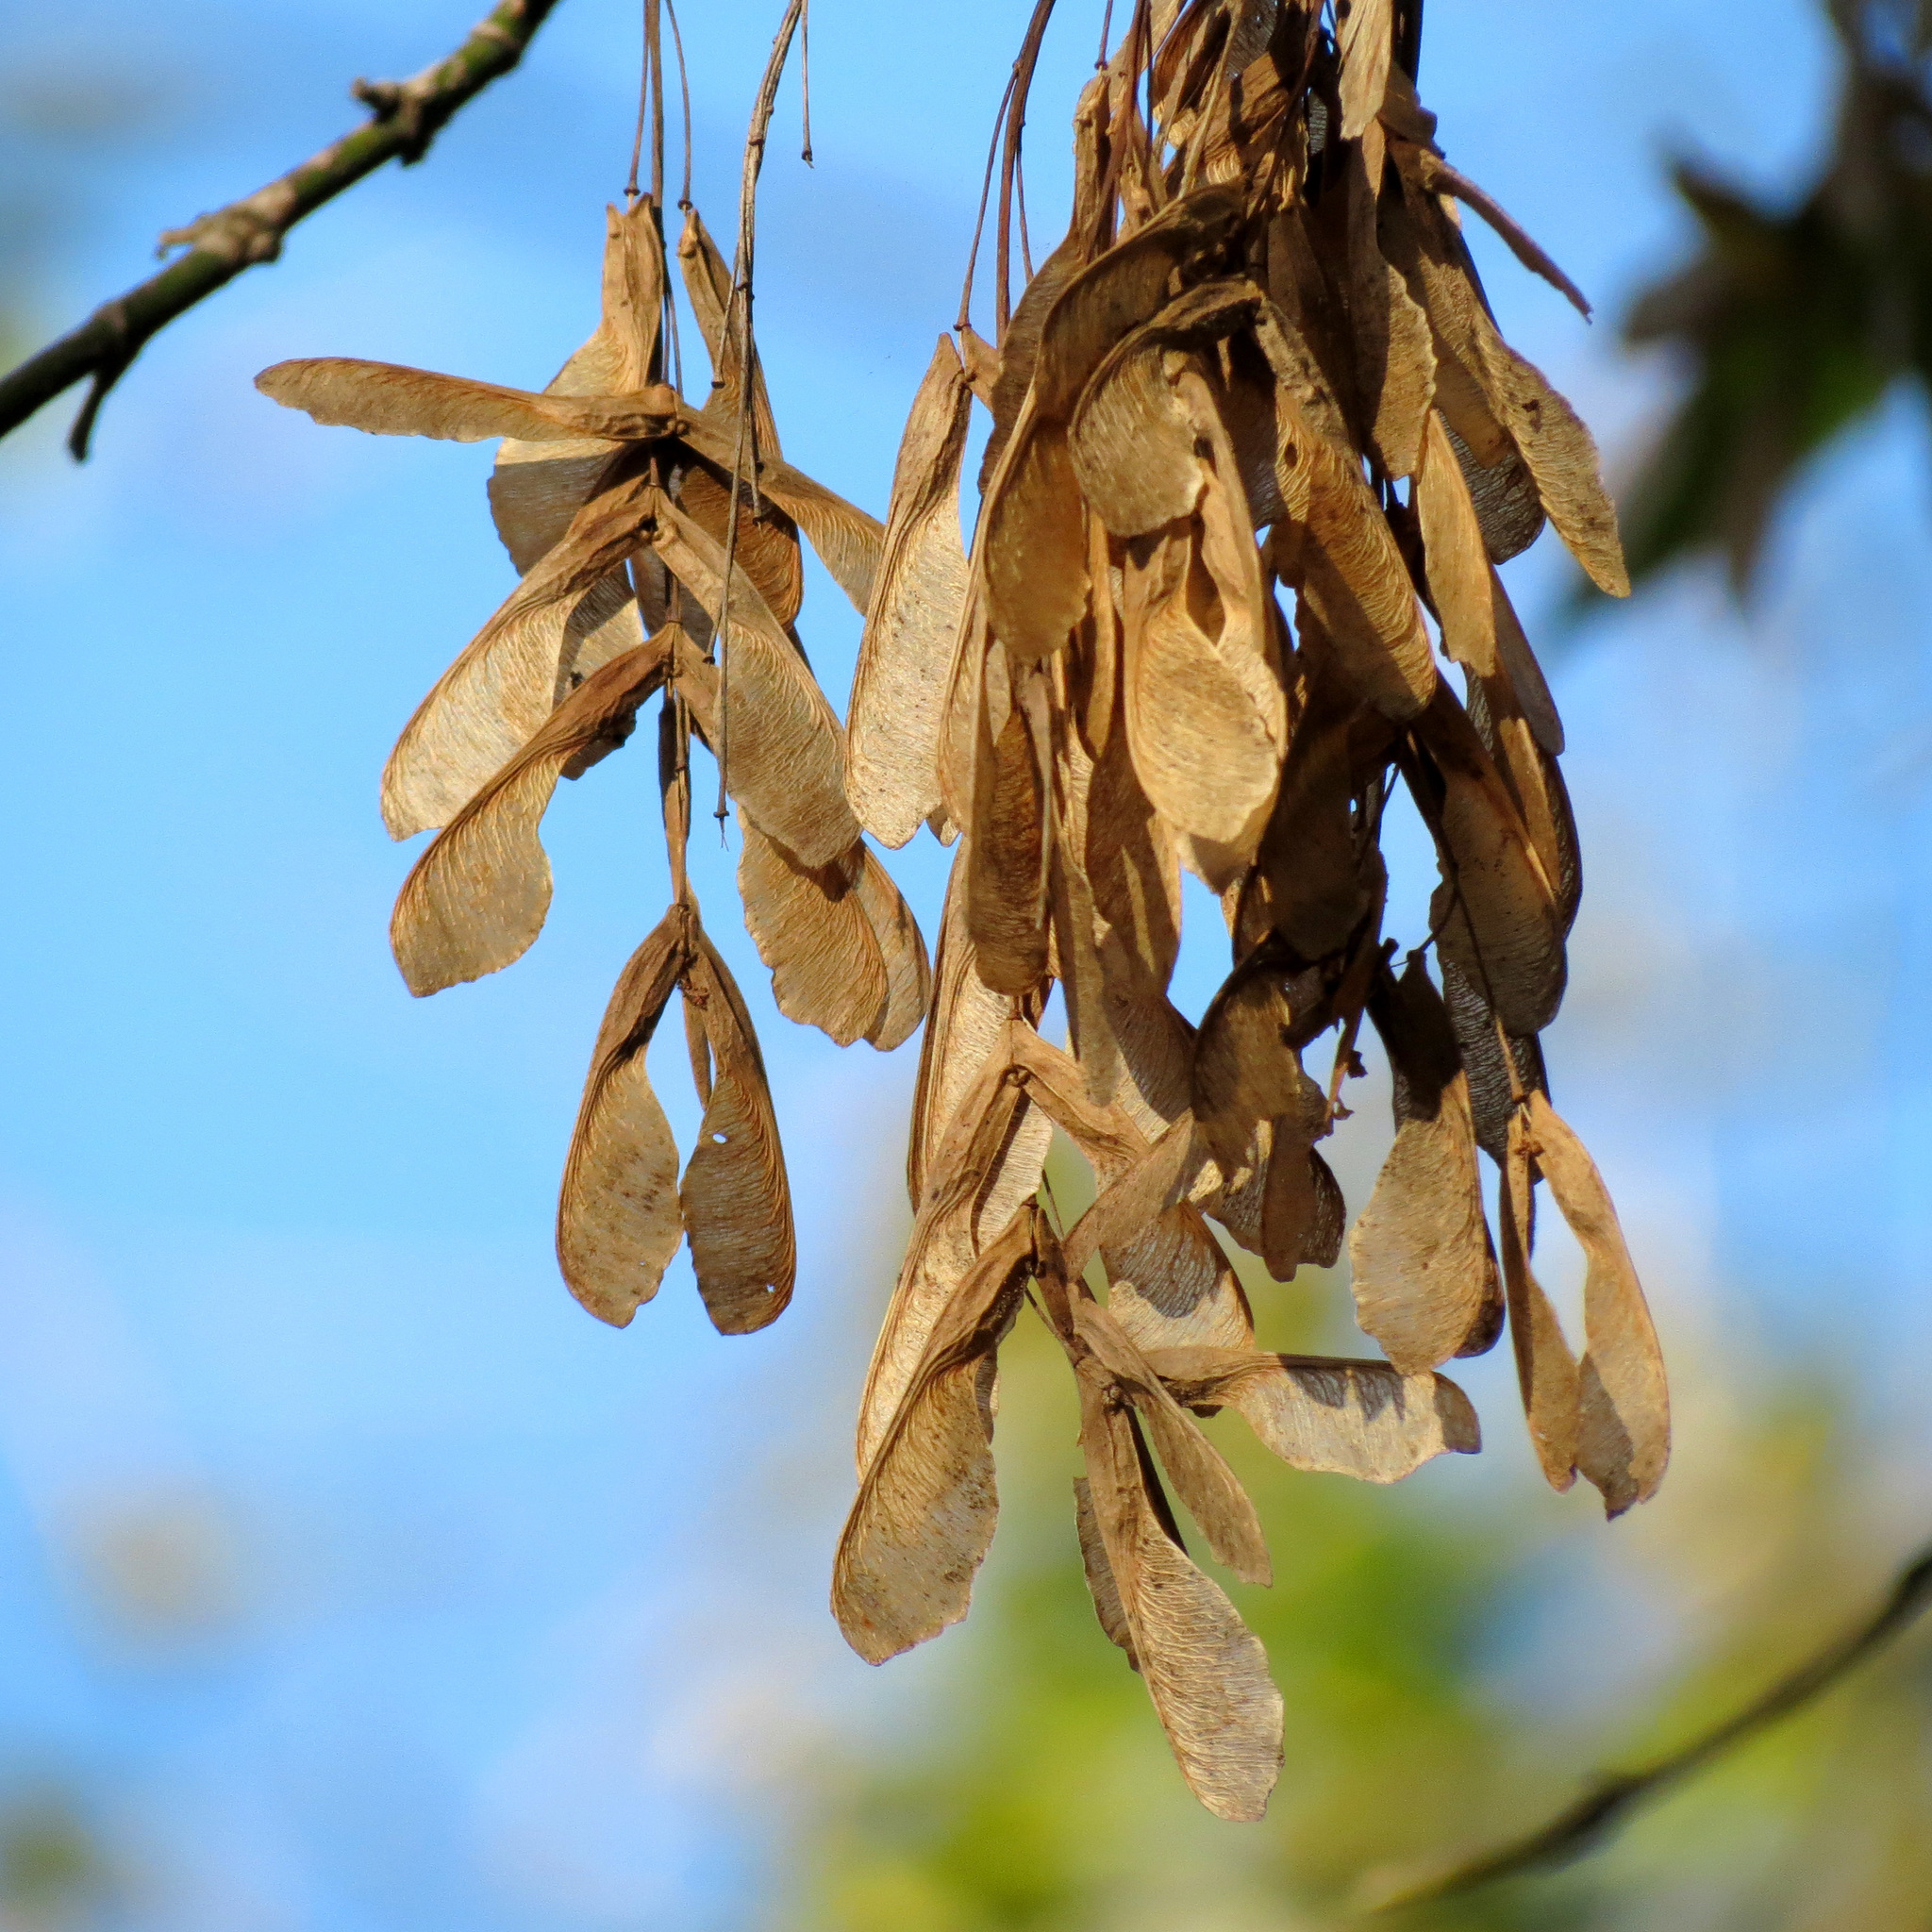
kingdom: Plantae
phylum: Tracheophyta
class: Magnoliopsida
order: Sapindales
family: Sapindaceae
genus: Acer
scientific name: Acer negundo
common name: Ashleaf maple
